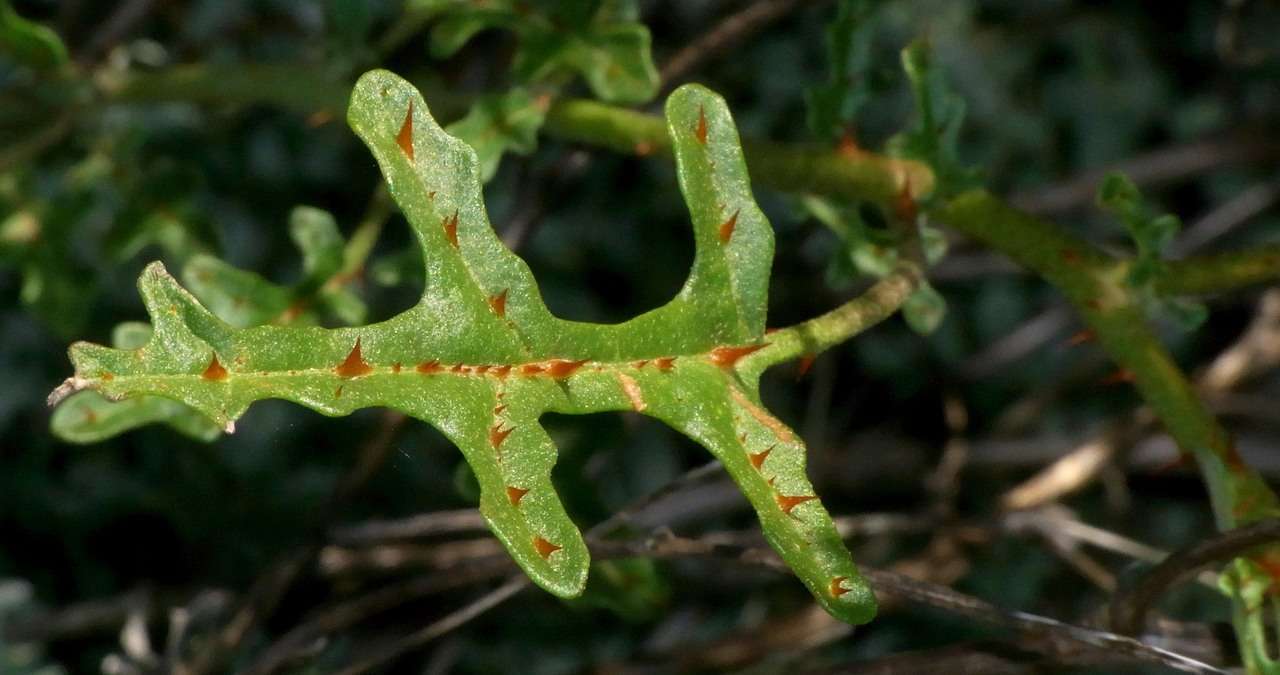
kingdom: Plantae
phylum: Tracheophyta
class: Magnoliopsida
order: Solanales
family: Solanaceae
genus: Solanum
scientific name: Solanum lacunarium
